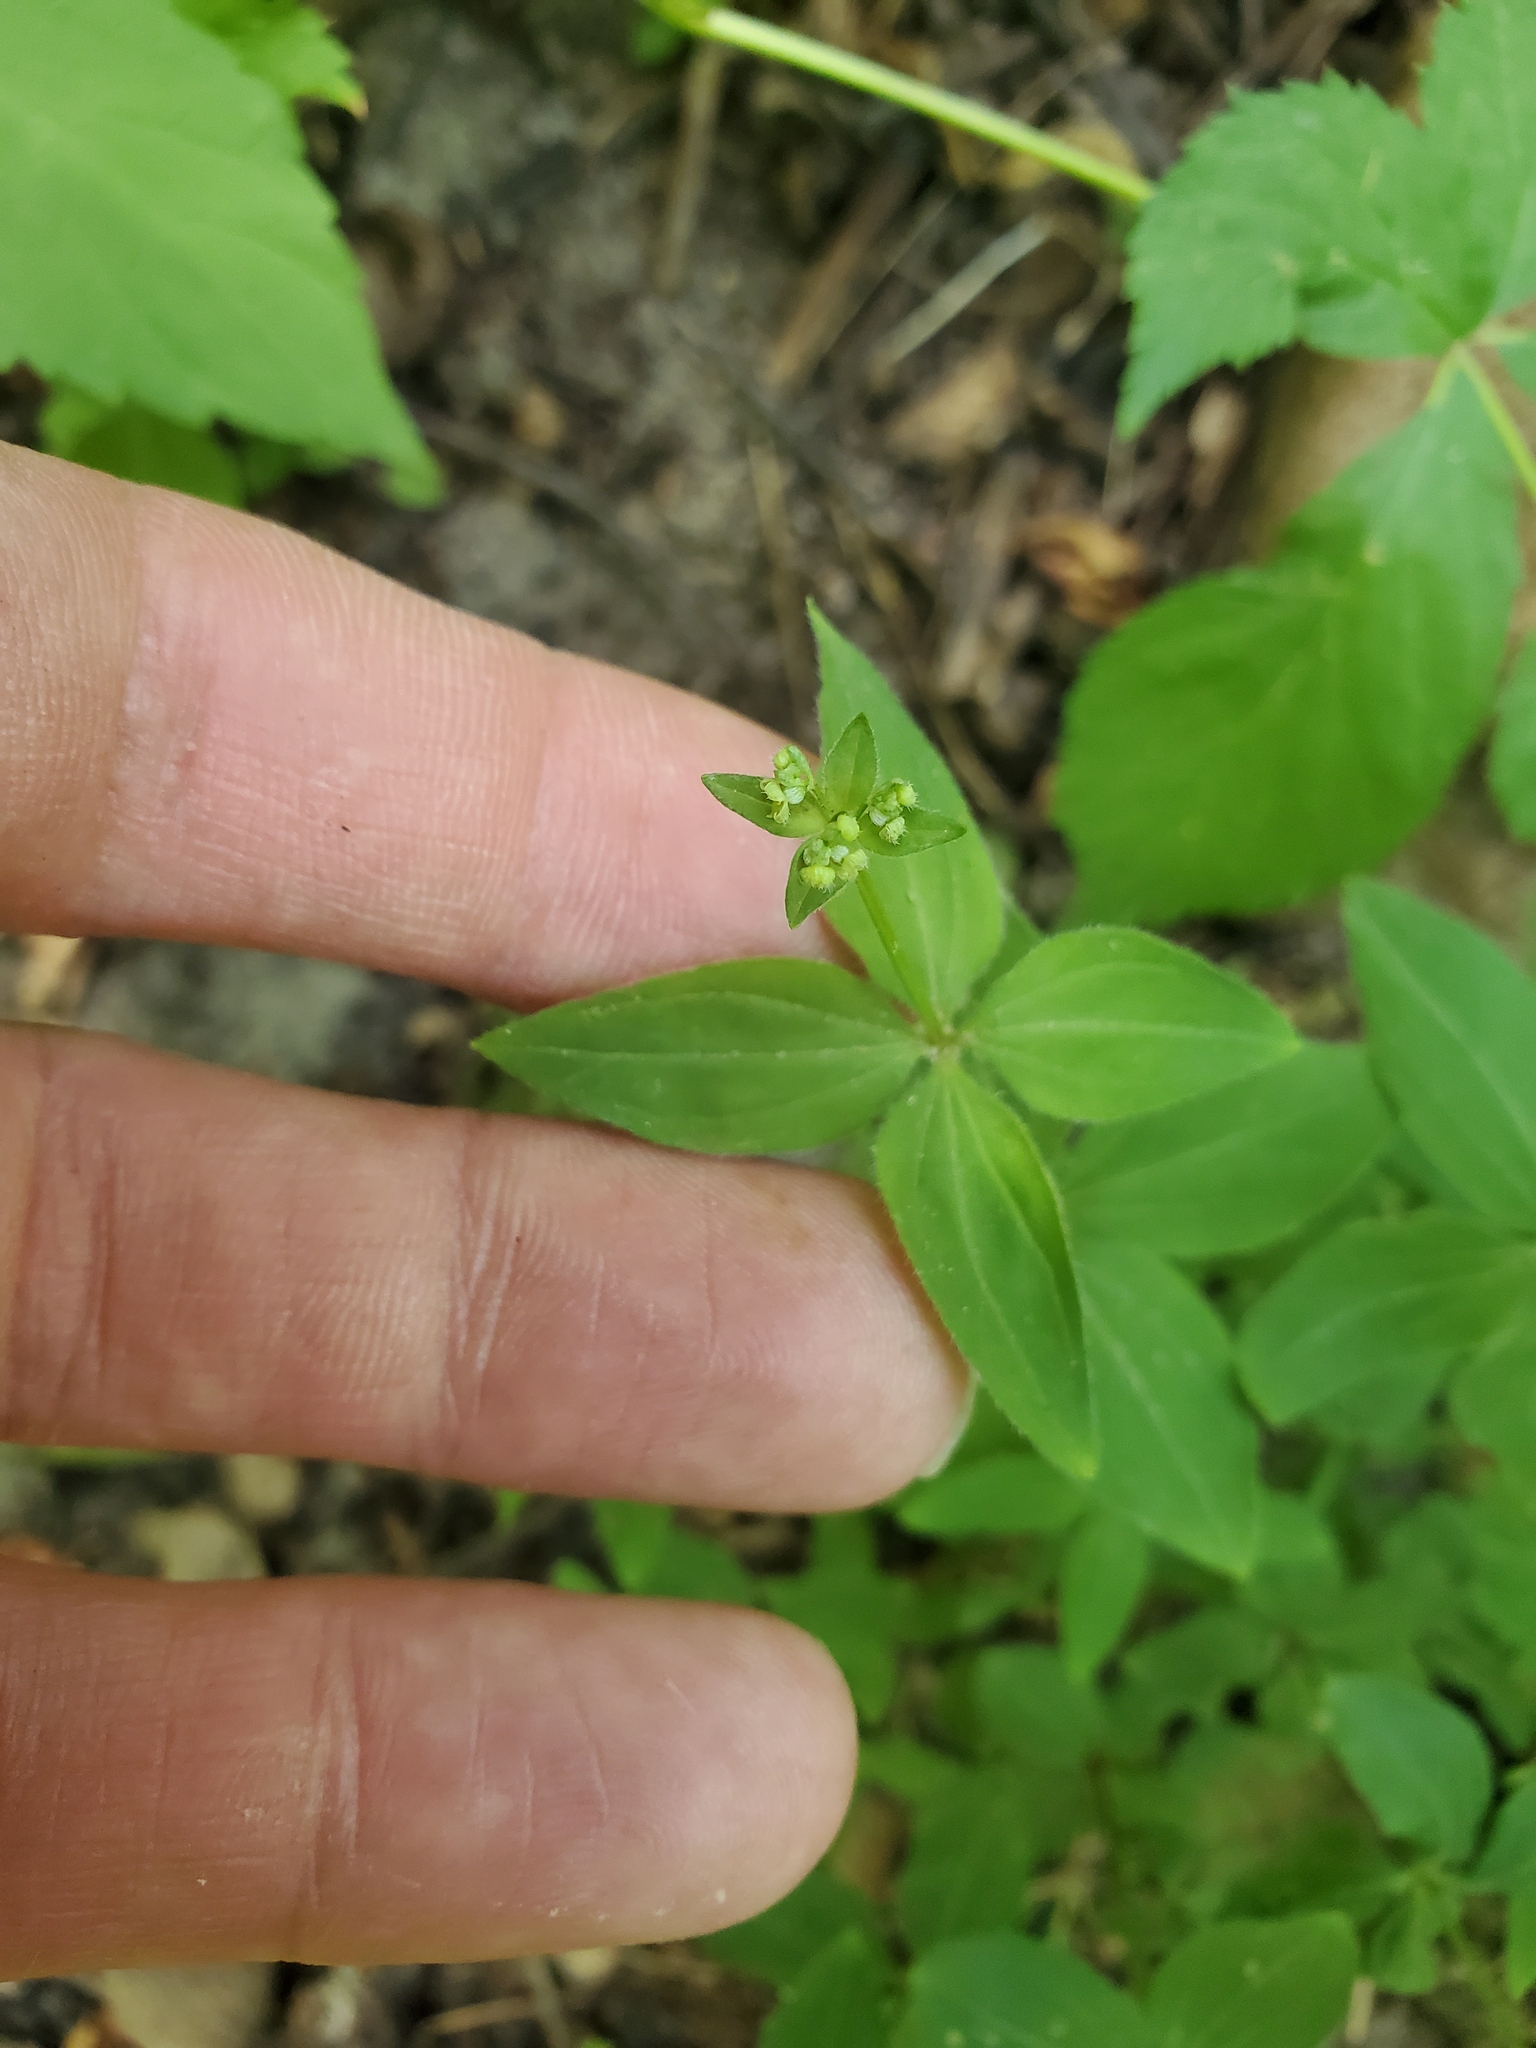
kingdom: Plantae
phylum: Tracheophyta
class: Magnoliopsida
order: Gentianales
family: Rubiaceae
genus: Galium
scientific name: Galium circaezans
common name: Forest bedstraw
